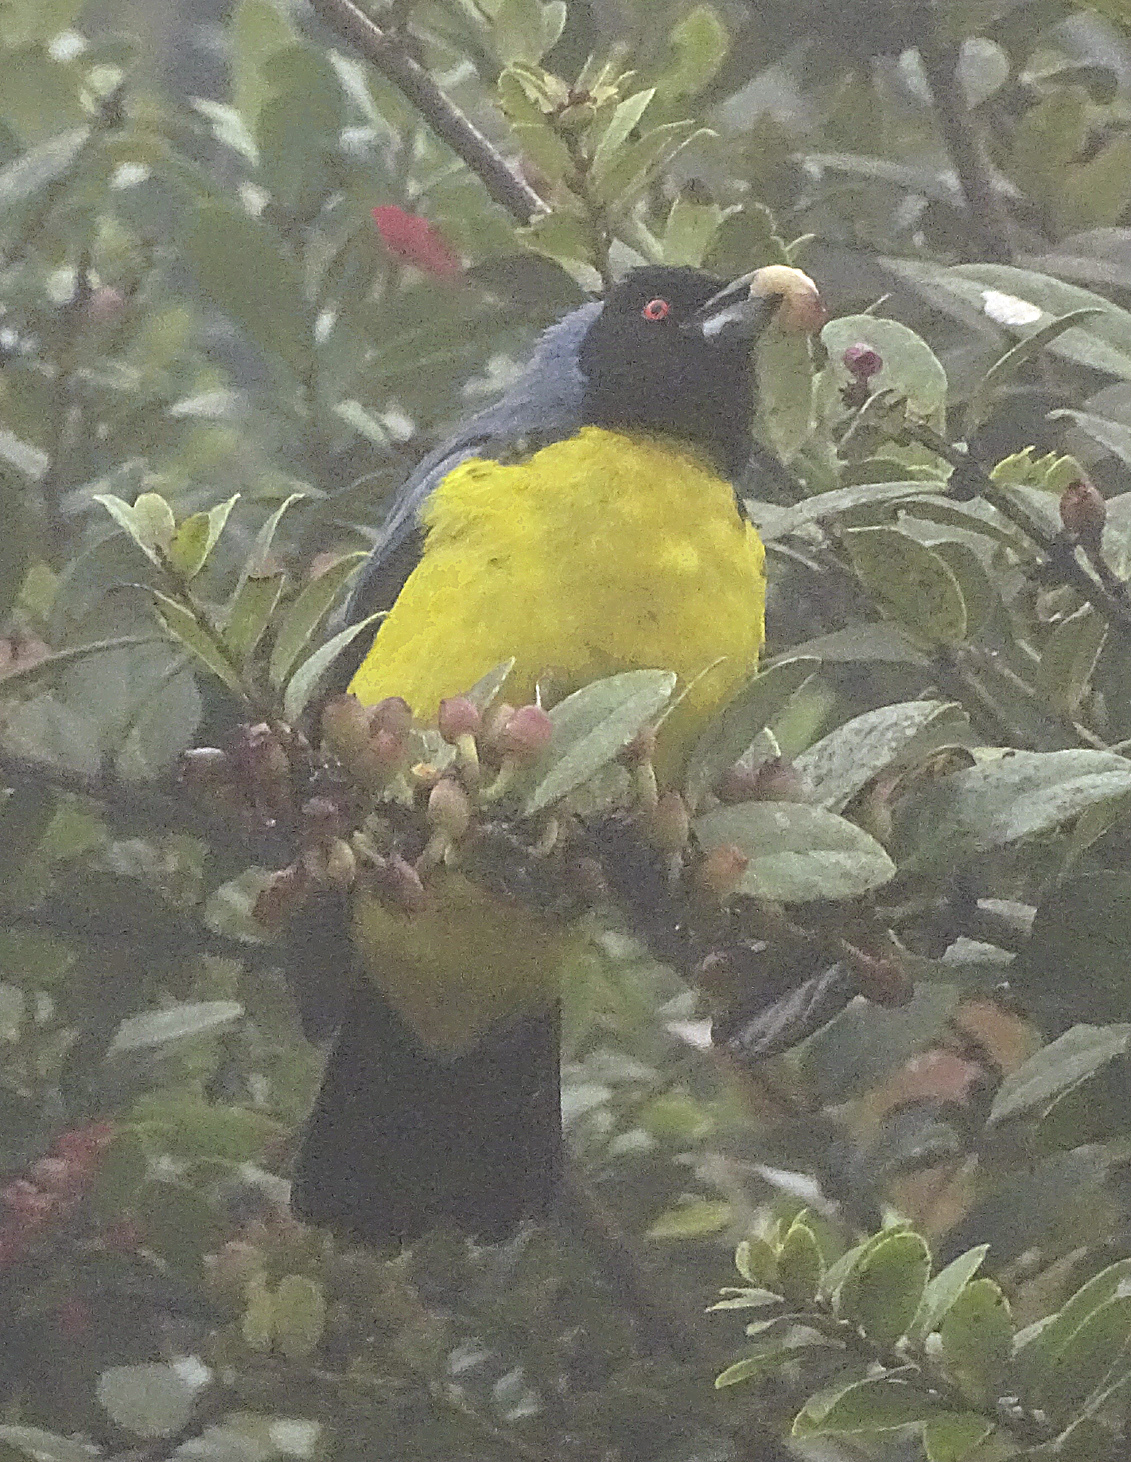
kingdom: Animalia
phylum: Chordata
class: Aves
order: Passeriformes
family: Thraupidae
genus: Buthraupis
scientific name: Buthraupis montana
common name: Hooded mountain tanager
